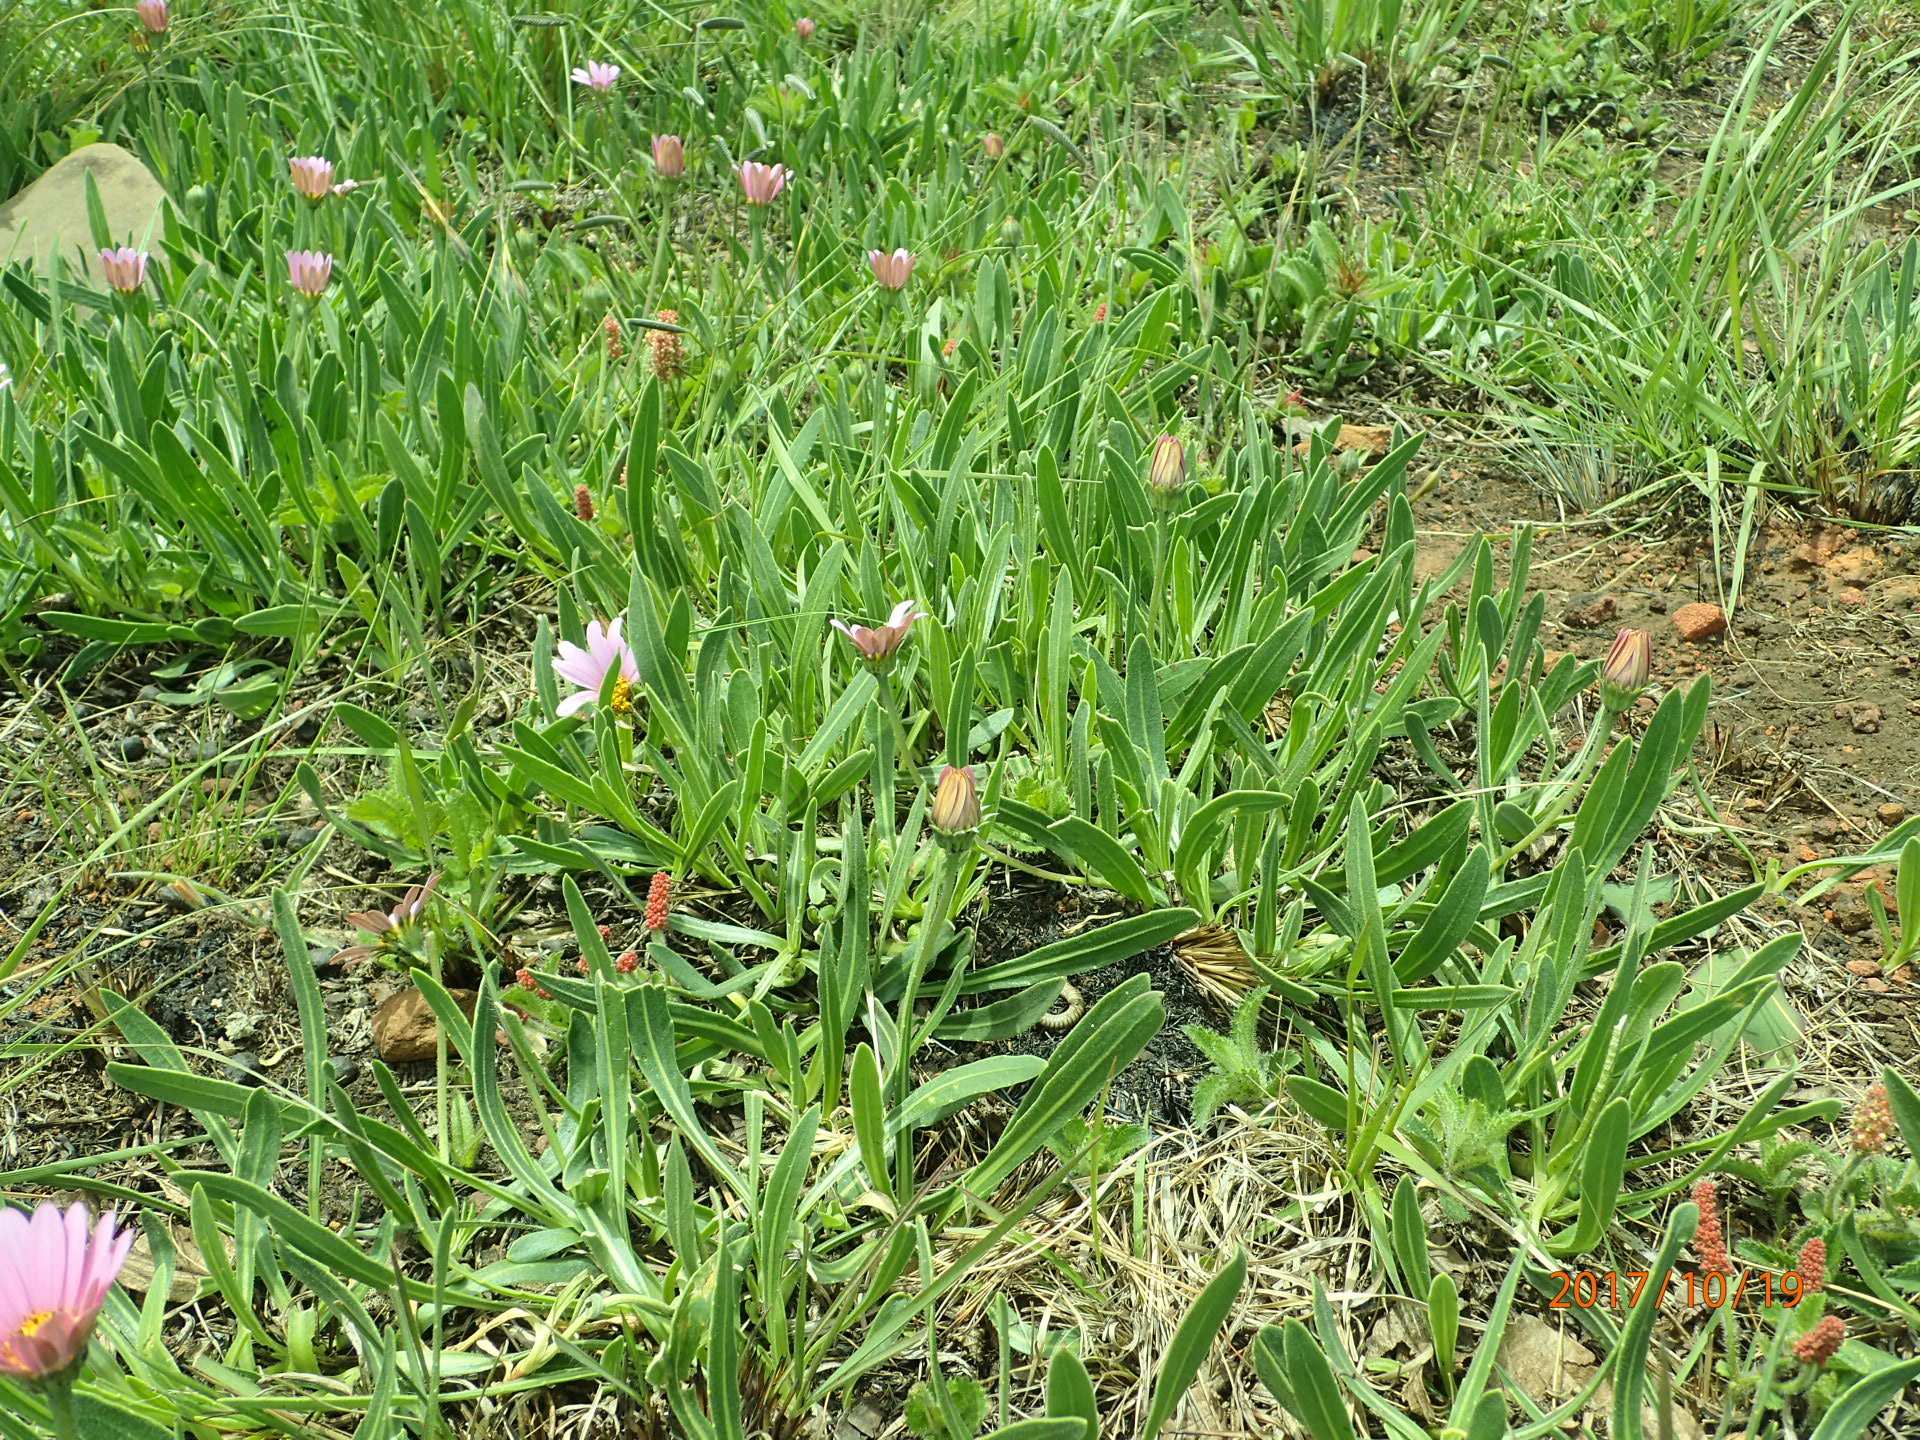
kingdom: Plantae
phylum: Tracheophyta
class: Magnoliopsida
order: Asterales
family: Asteraceae
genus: Dimorphotheca
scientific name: Dimorphotheca jucunda
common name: Osteospermum
